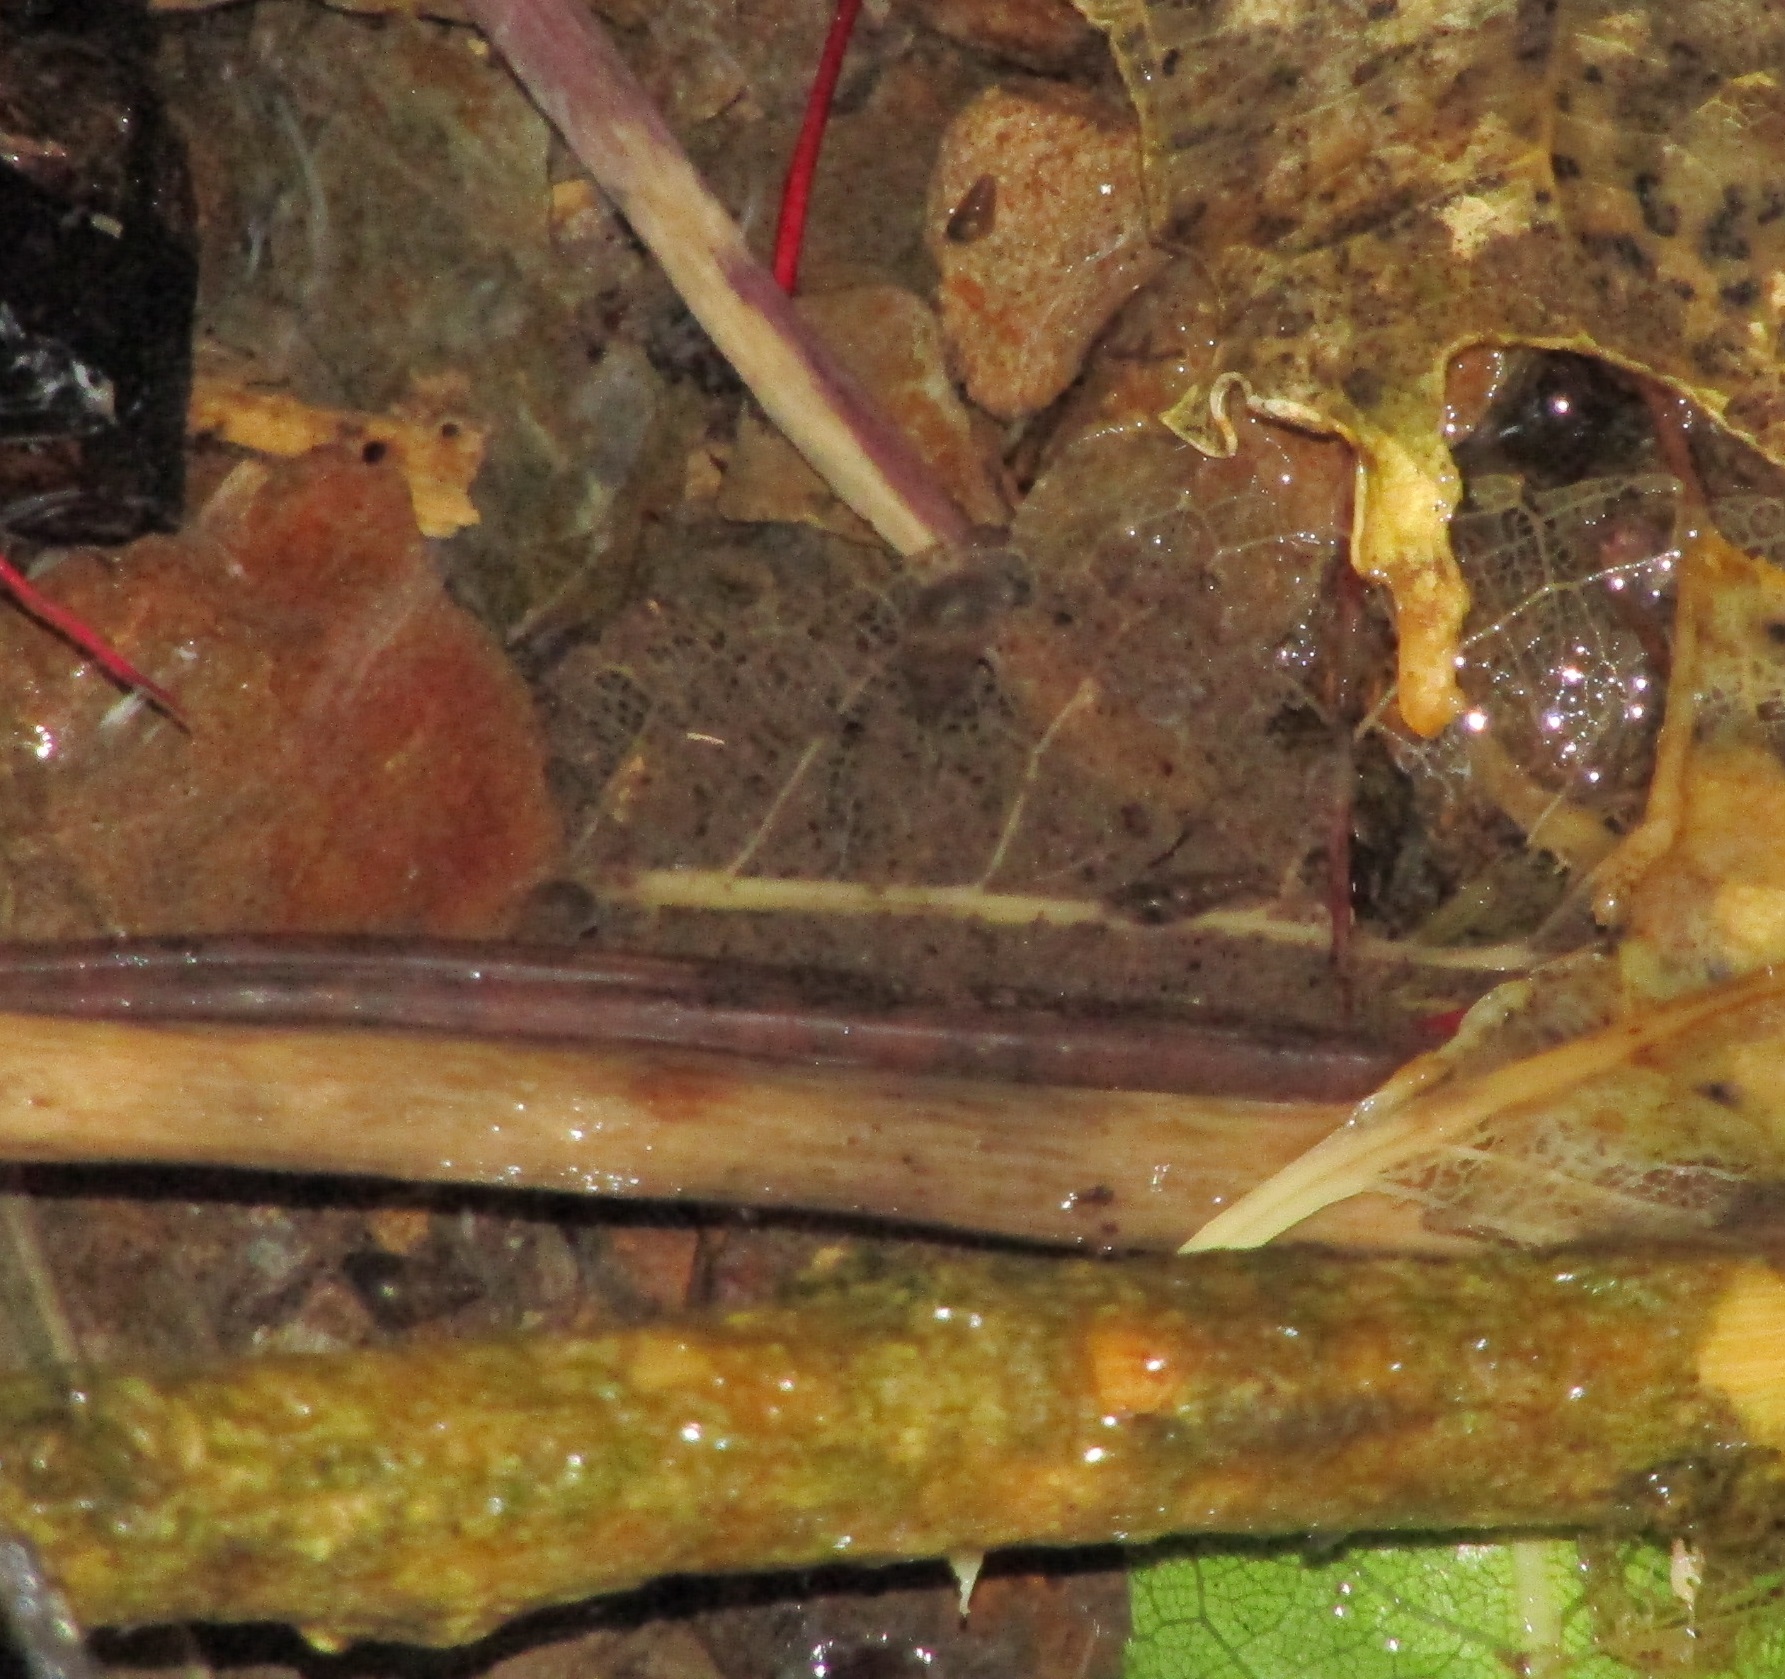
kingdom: Animalia
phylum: Mollusca
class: Gastropoda
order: Littorinimorpha
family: Tateidae
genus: Potamopyrgus
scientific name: Potamopyrgus antipodarum
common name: Jenkins' spire snail
